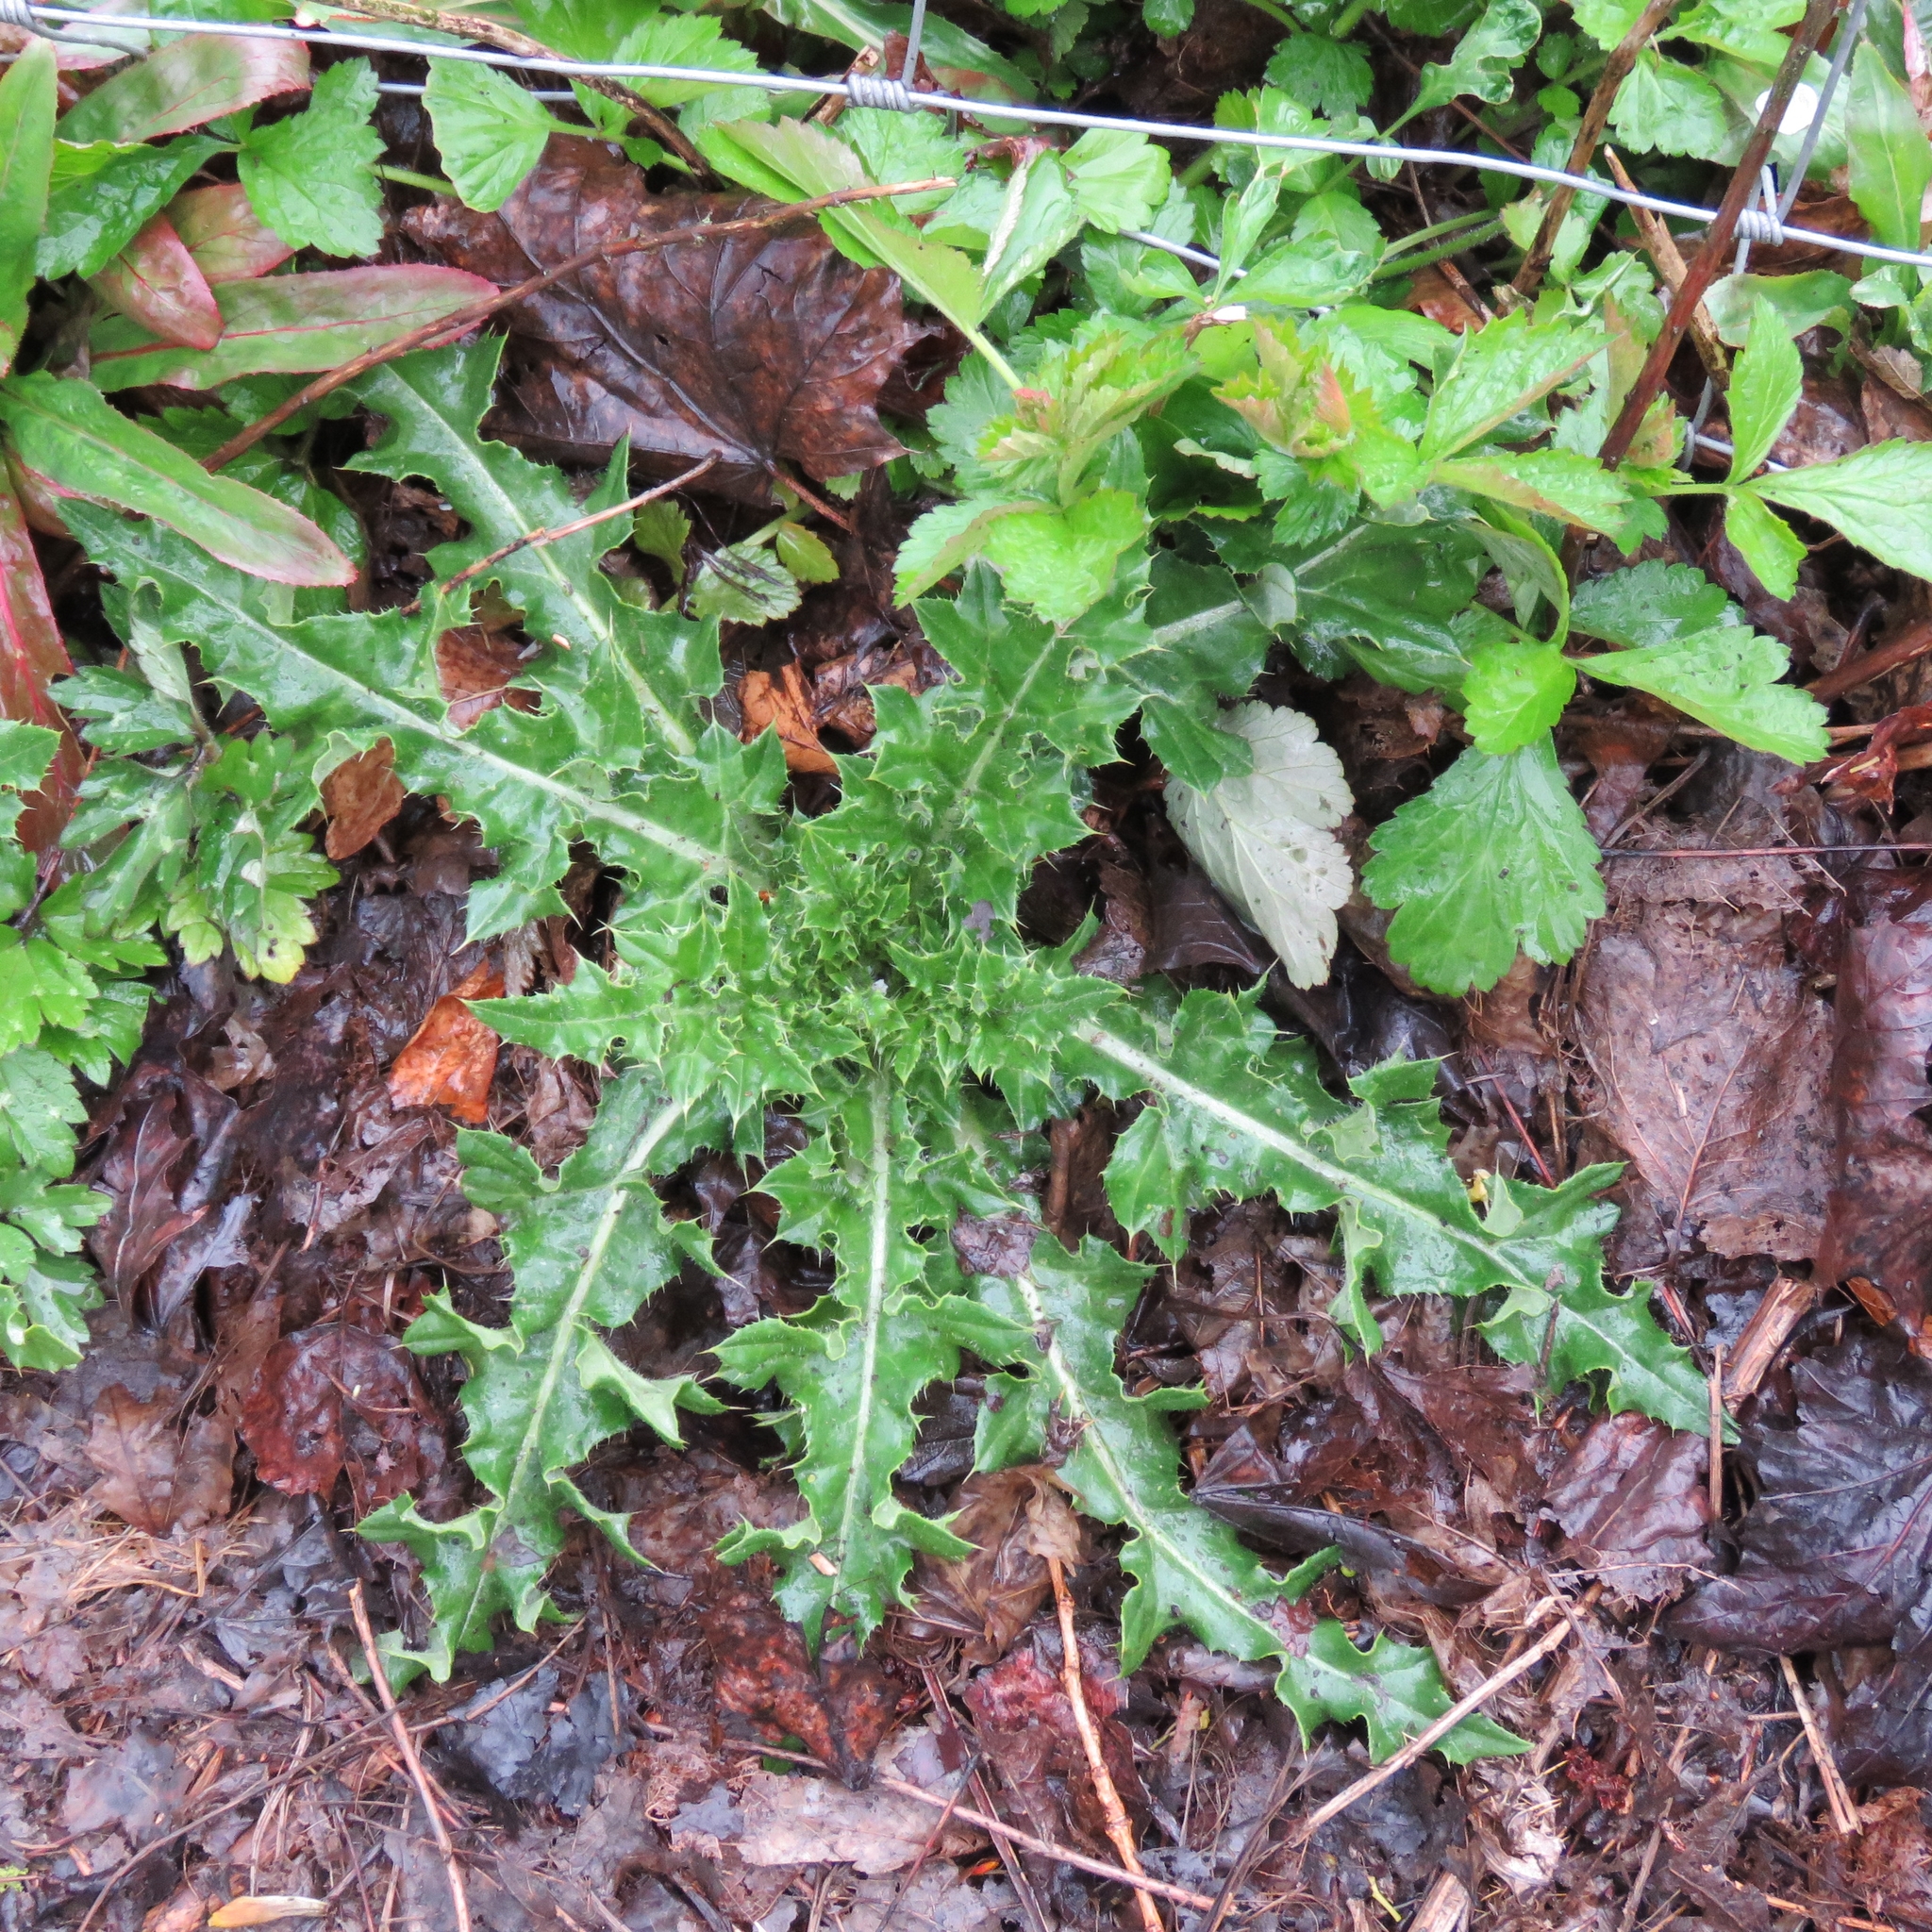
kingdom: Plantae
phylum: Tracheophyta
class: Magnoliopsida
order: Asterales
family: Asteraceae
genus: Cirsium
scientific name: Cirsium arvense
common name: Creeping thistle
